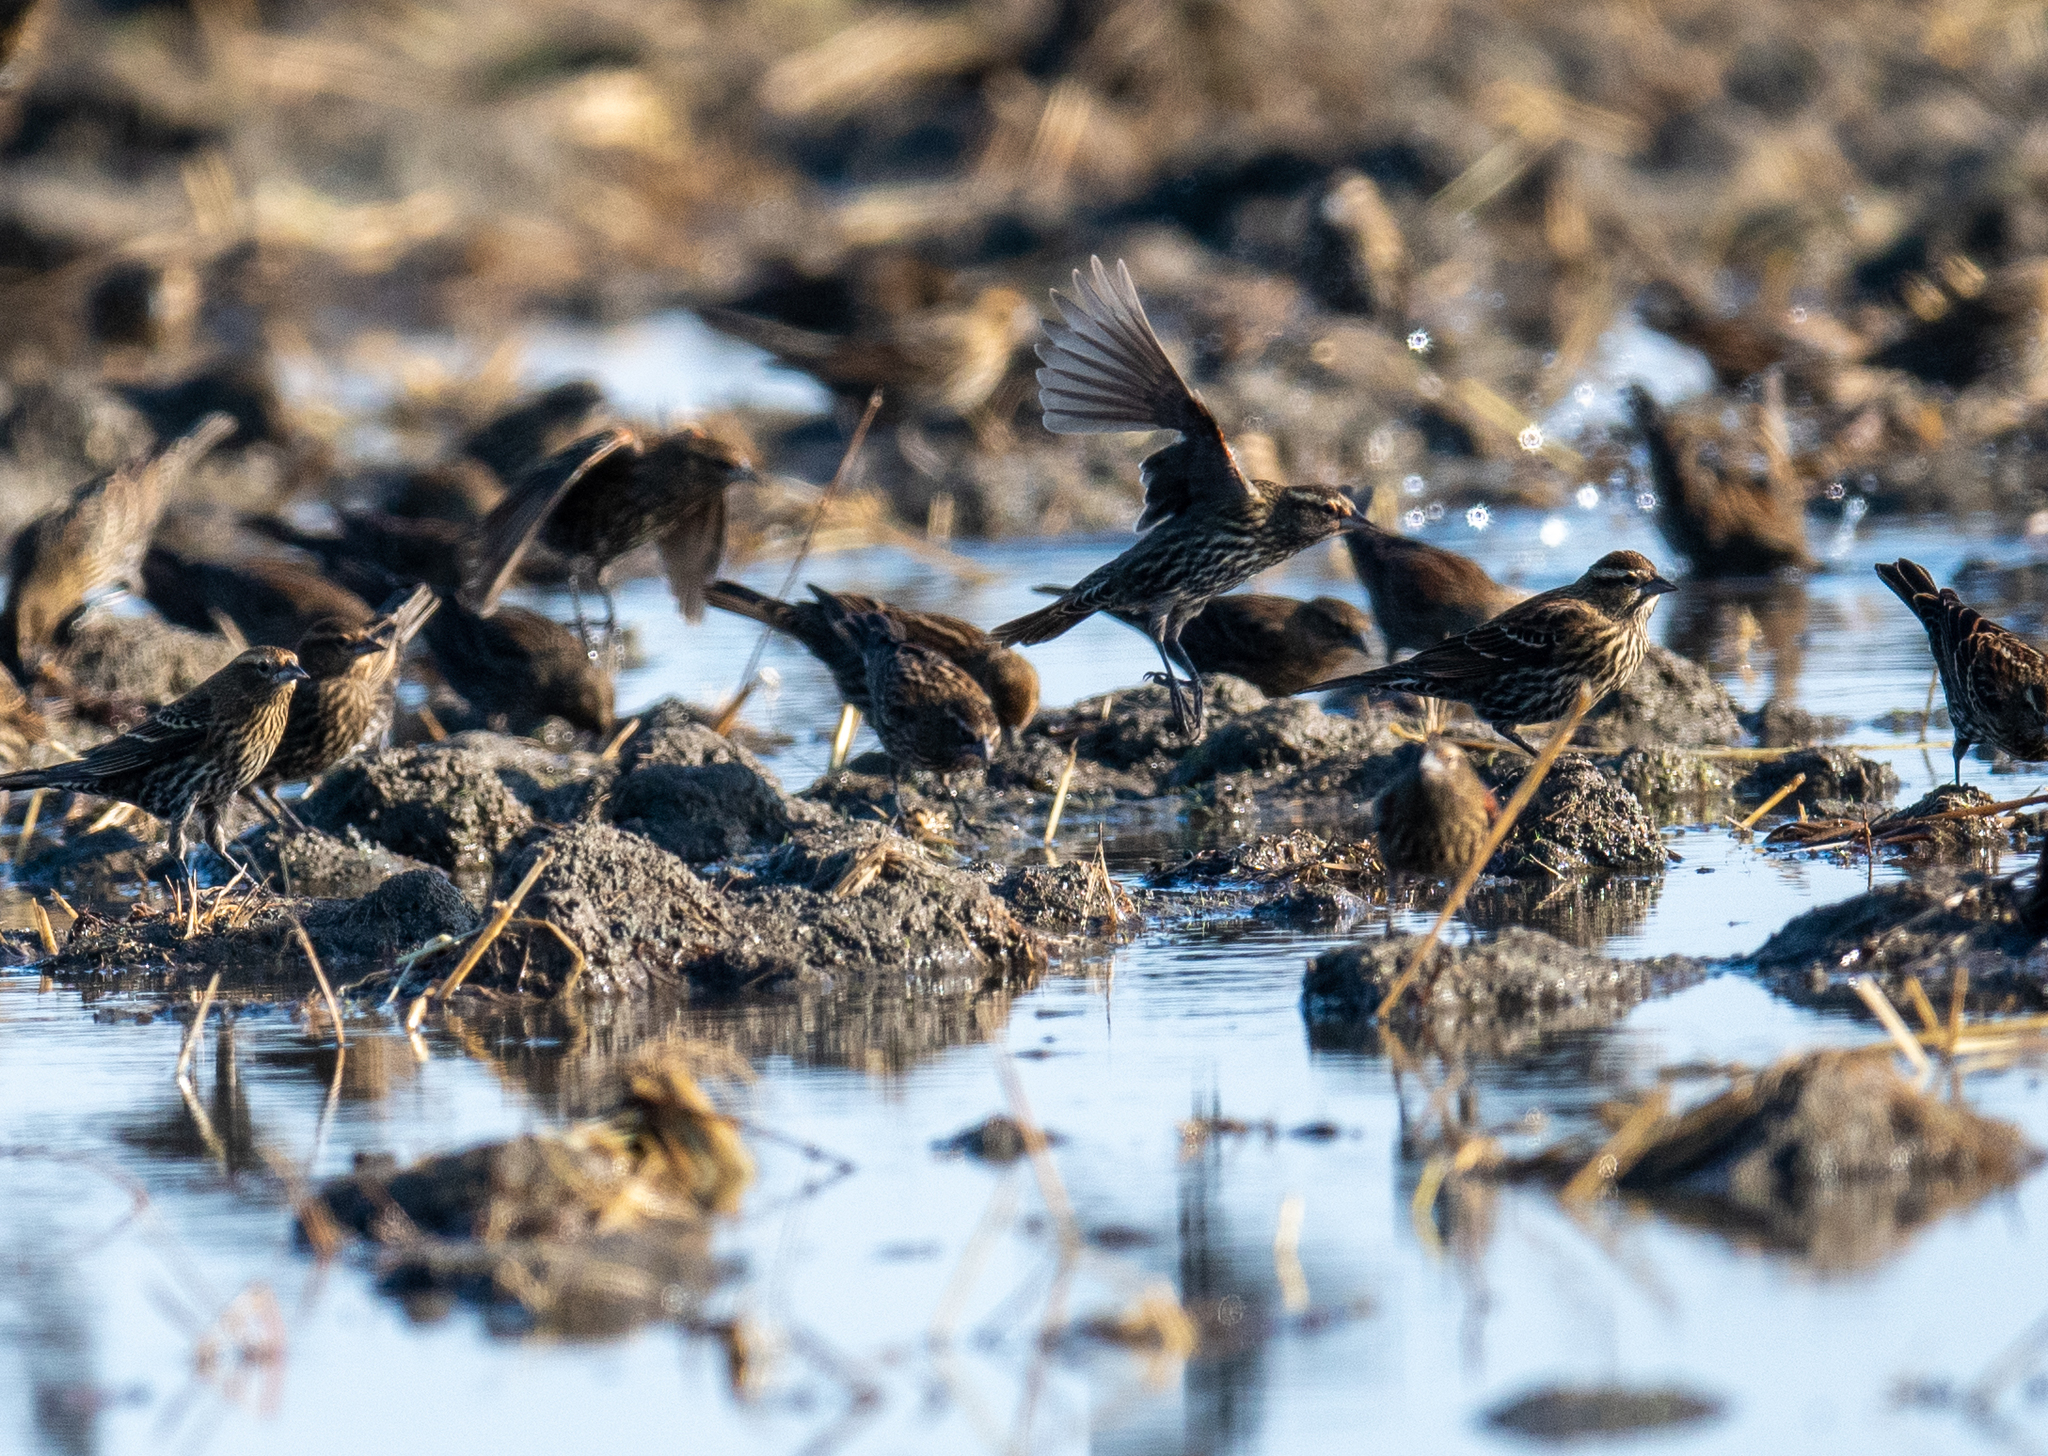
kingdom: Animalia
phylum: Chordata
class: Aves
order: Passeriformes
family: Icteridae
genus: Agelaius
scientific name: Agelaius phoeniceus
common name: Red-winged blackbird
